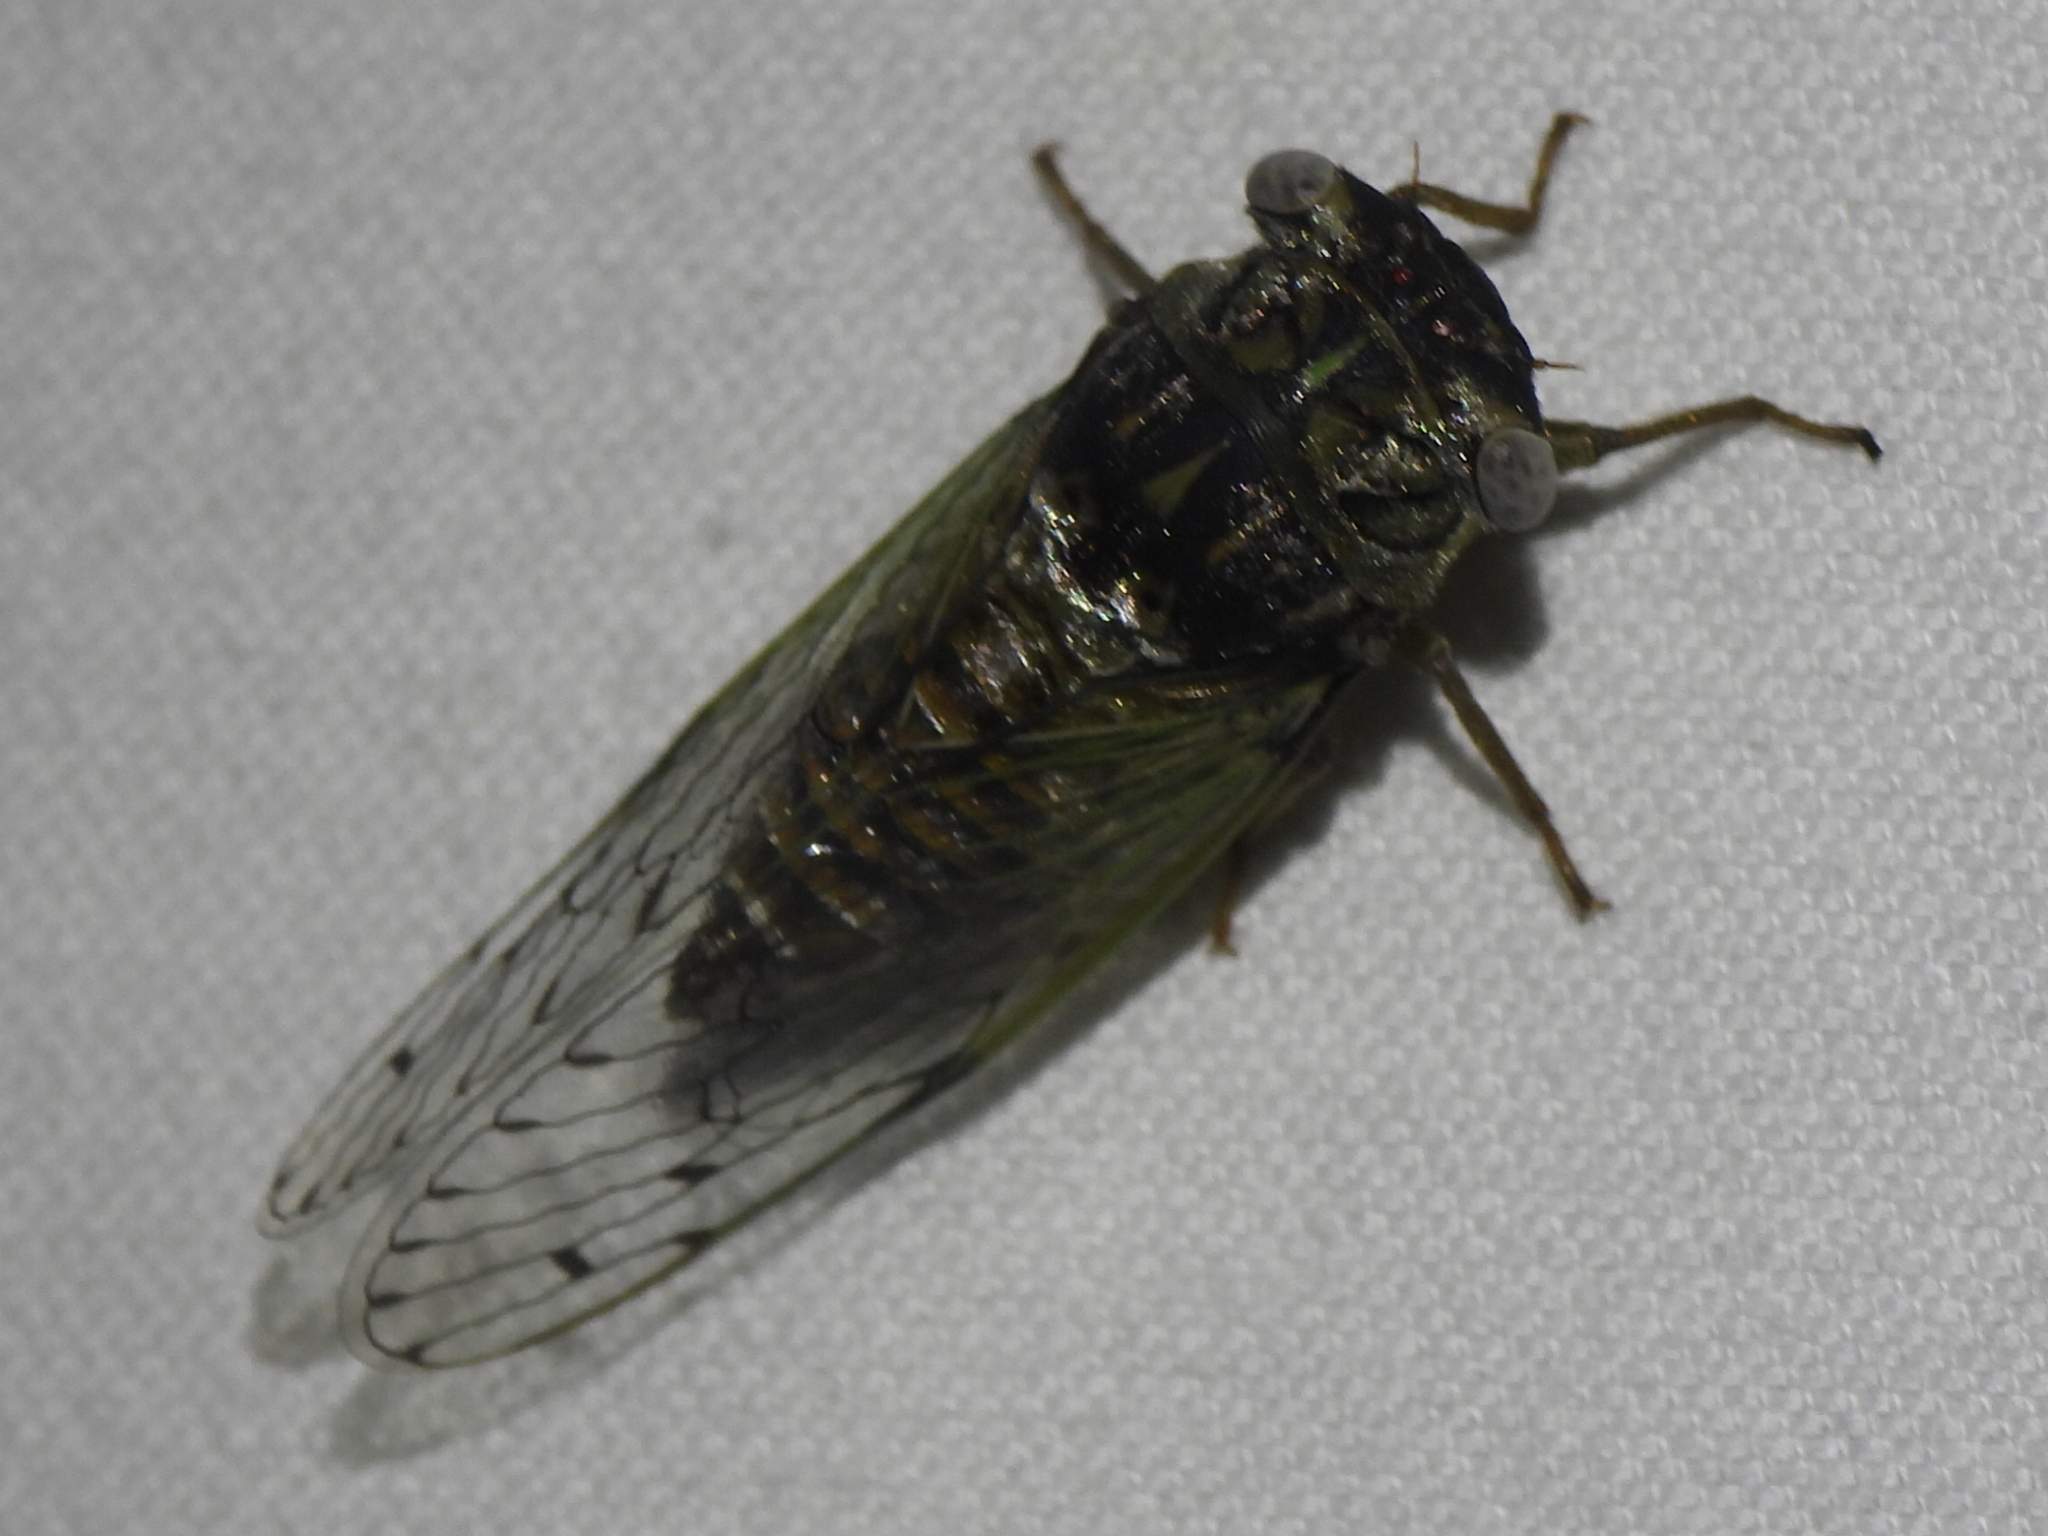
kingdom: Animalia
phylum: Arthropoda
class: Insecta
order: Hemiptera
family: Cicadidae
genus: Pacarina
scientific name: Pacarina puella
